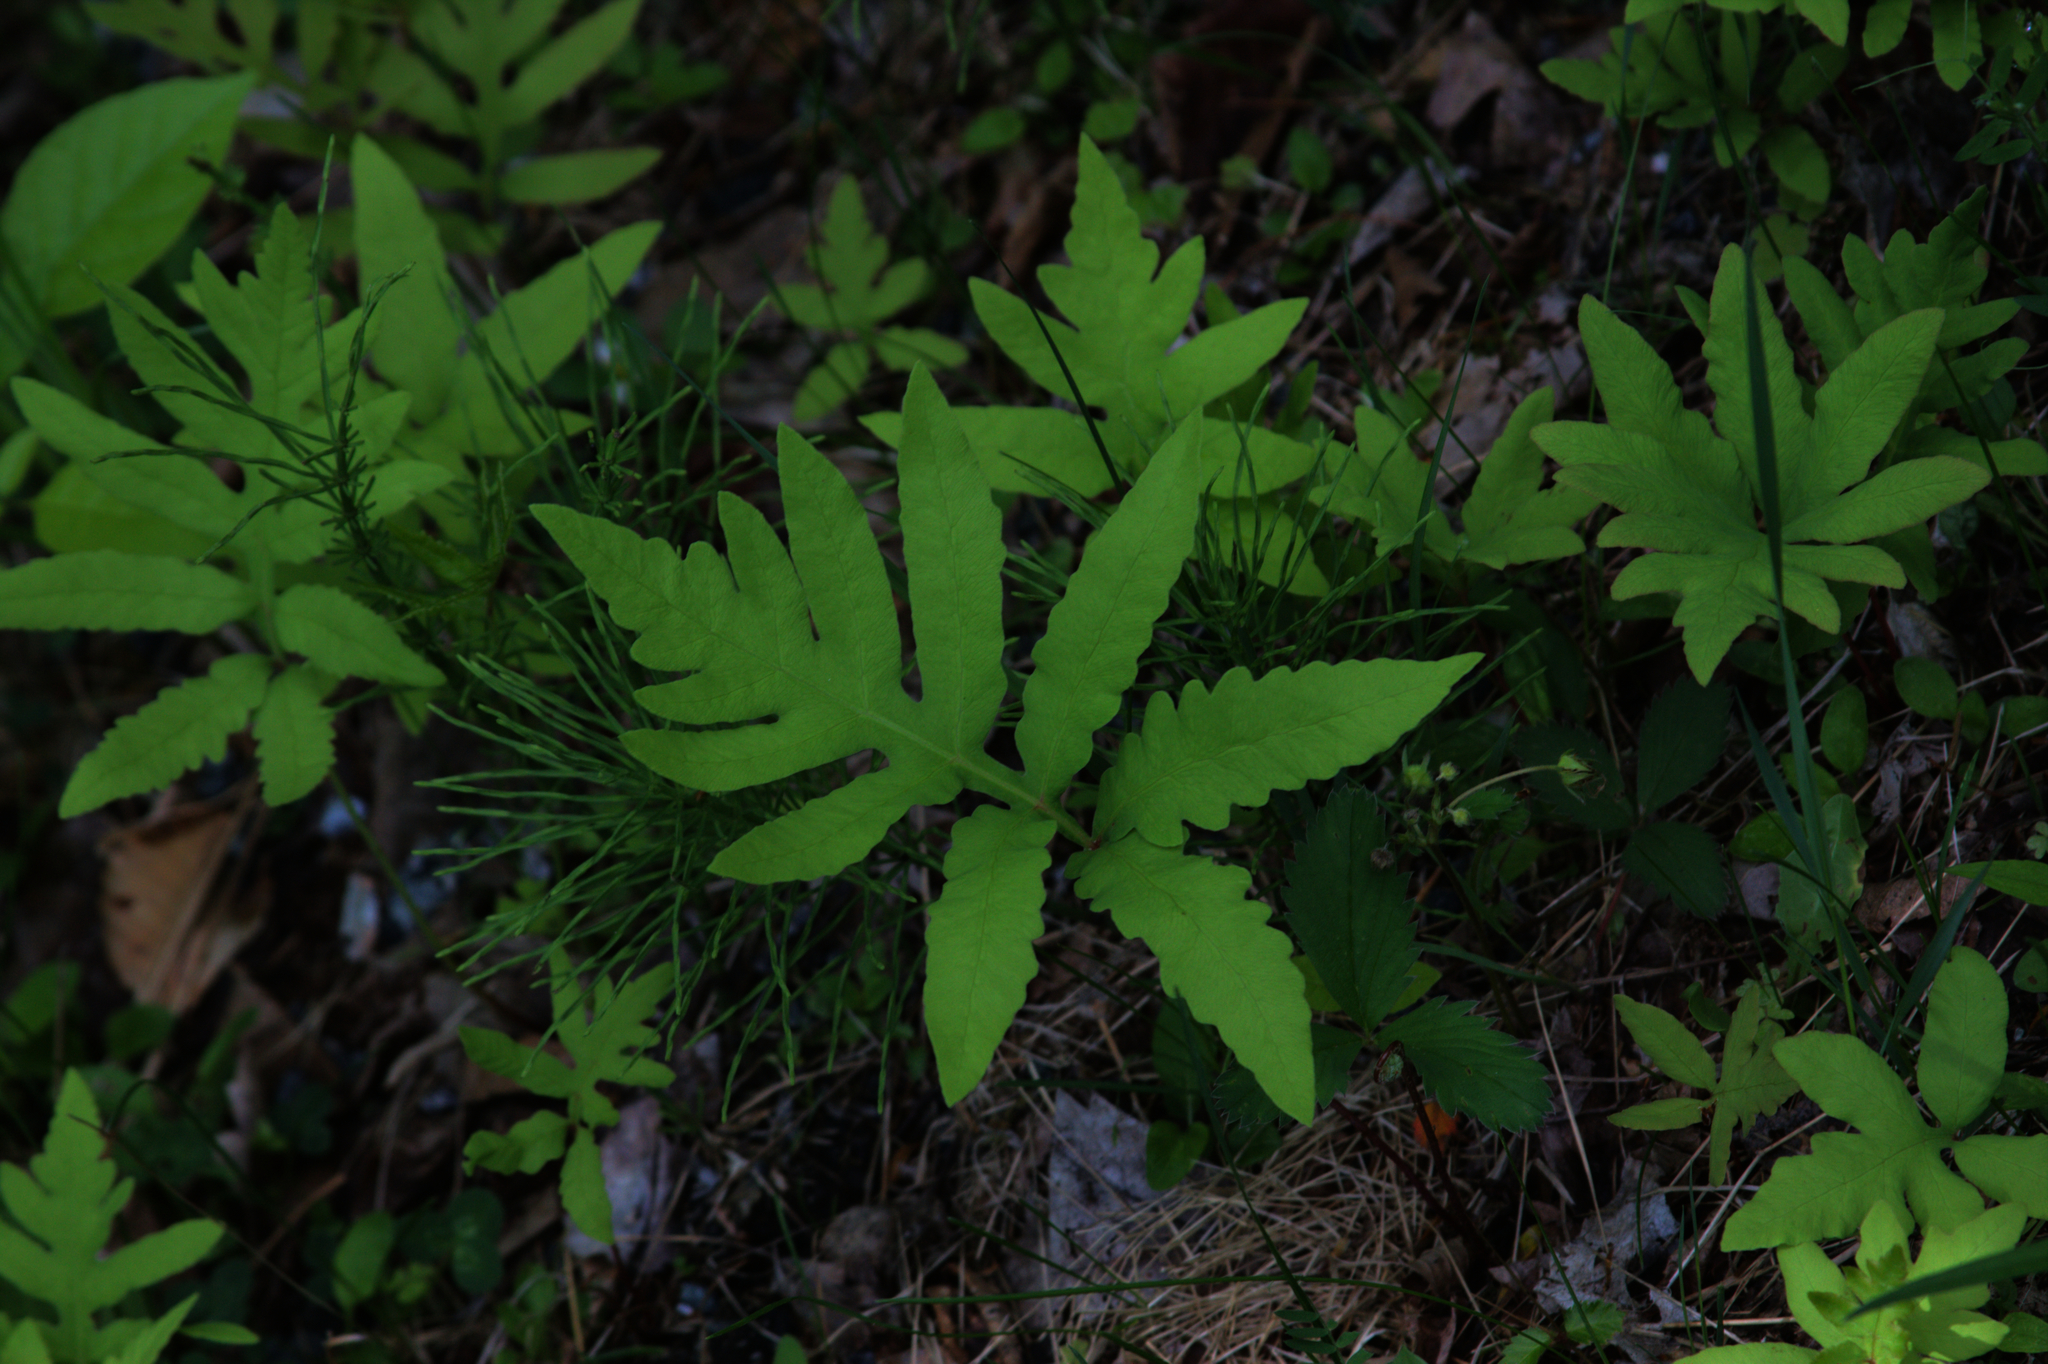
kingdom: Plantae
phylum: Tracheophyta
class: Polypodiopsida
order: Polypodiales
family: Onocleaceae
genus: Onoclea
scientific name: Onoclea sensibilis
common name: Sensitive fern
